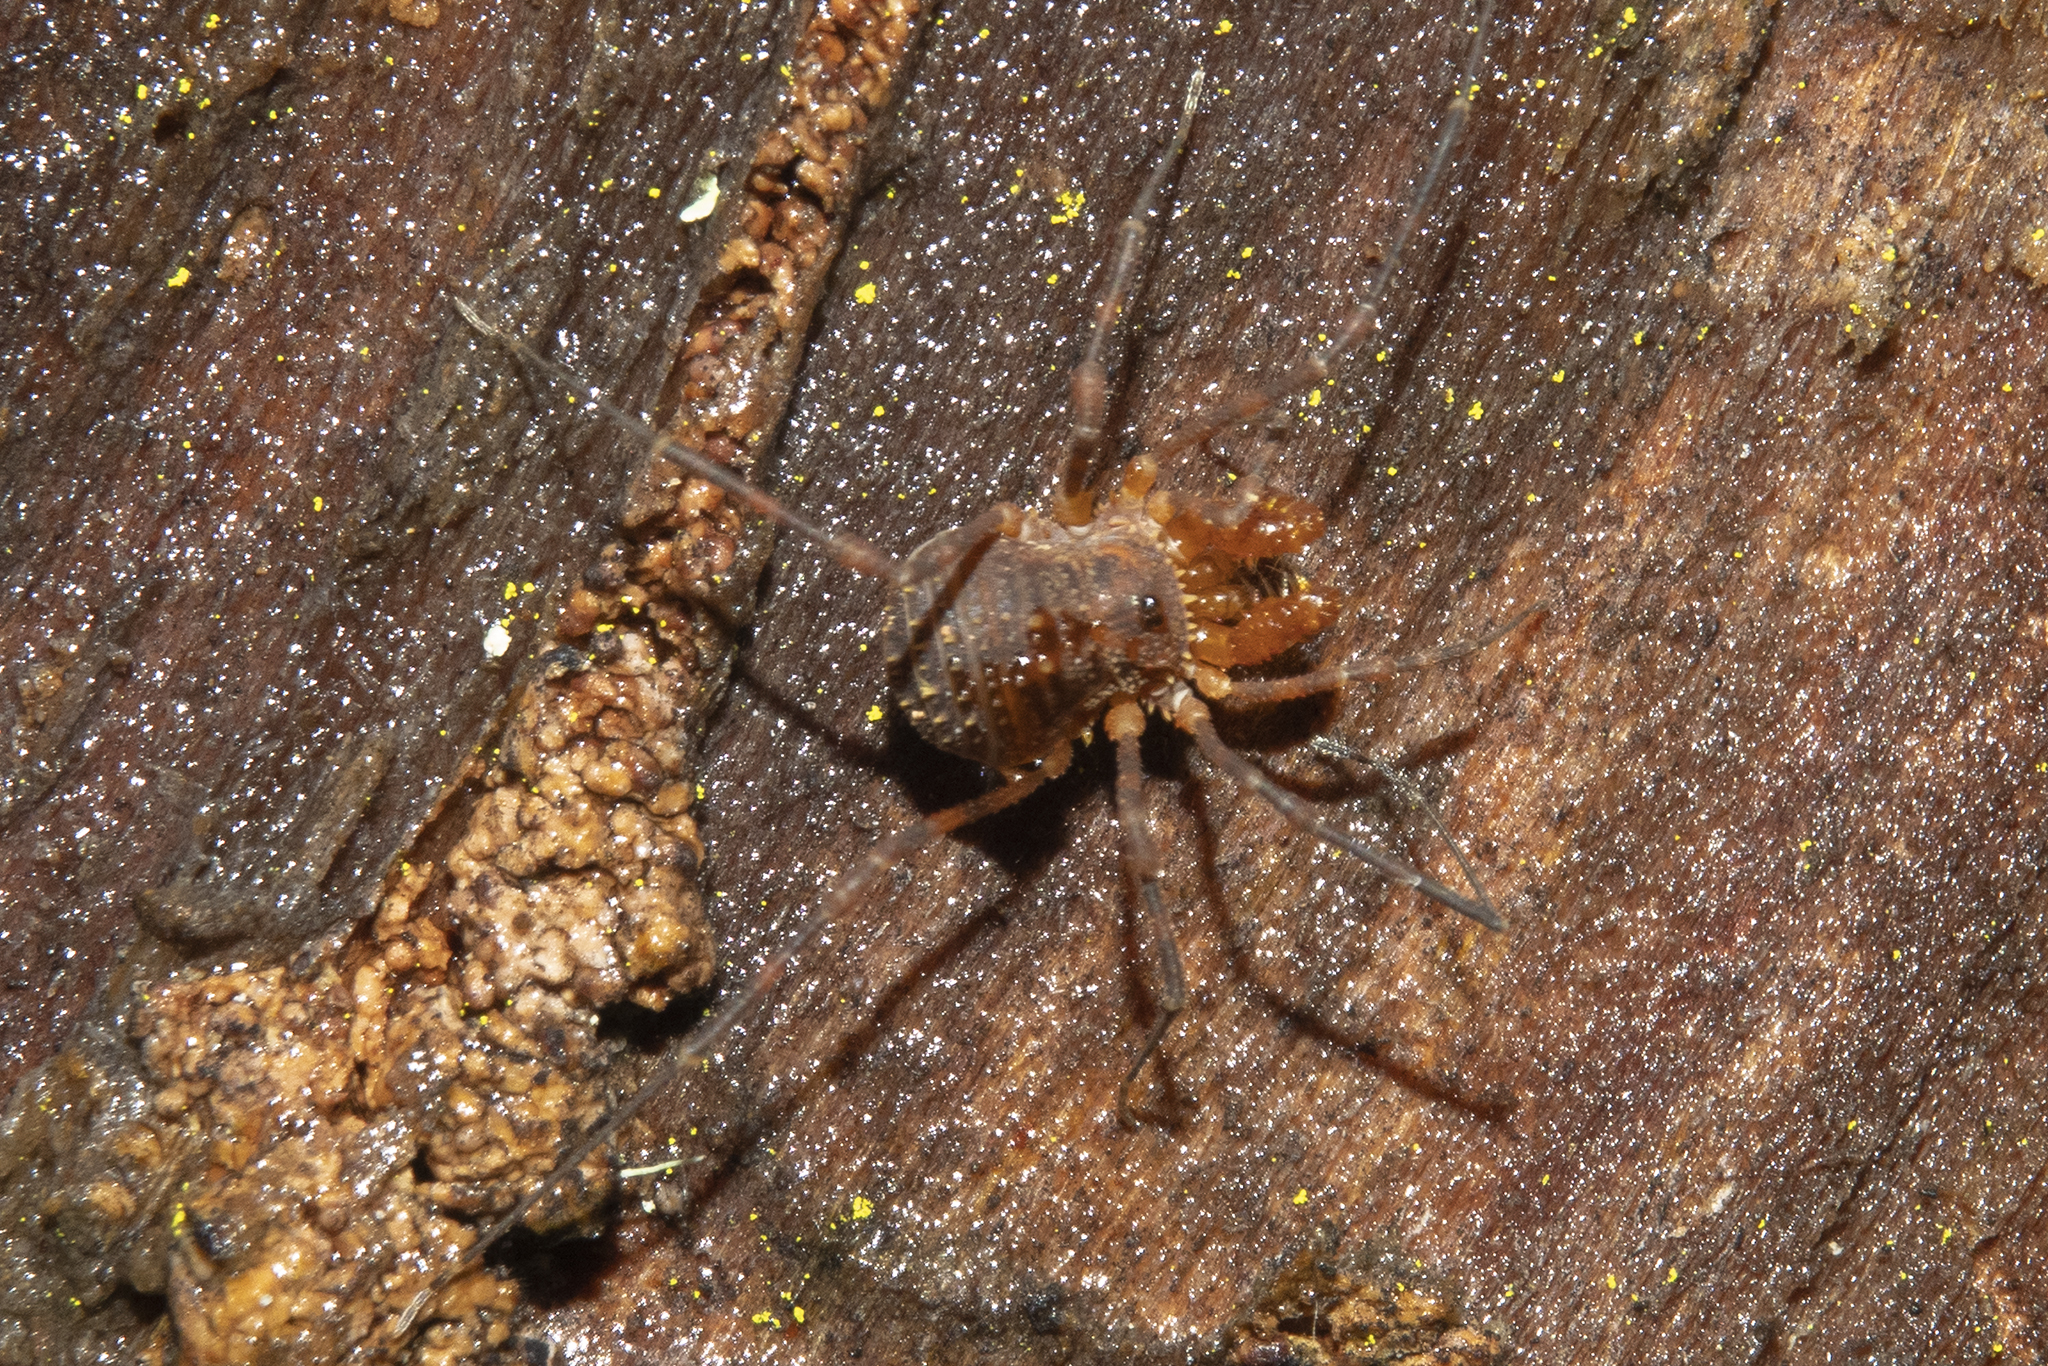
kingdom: Animalia
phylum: Arthropoda
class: Arachnida
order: Opiliones
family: Triaenonychidae
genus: Prasma
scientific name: Prasma tuberculata
